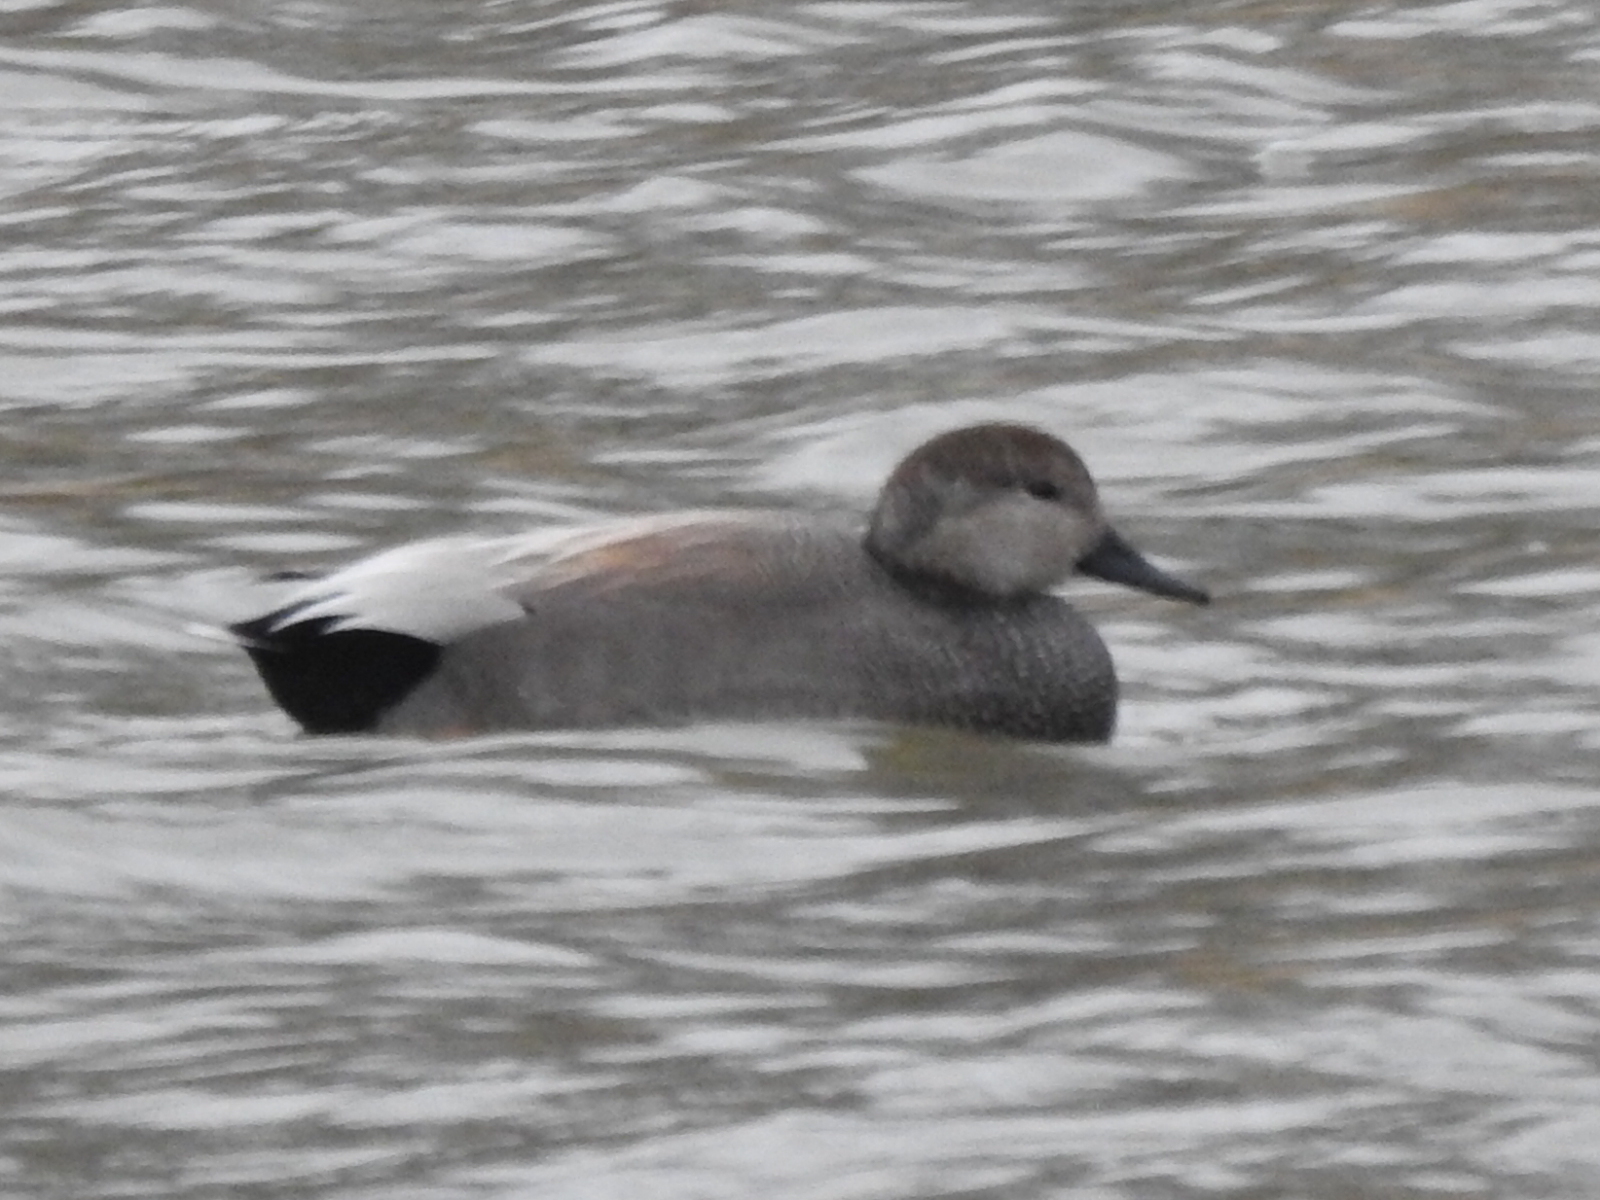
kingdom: Animalia
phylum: Chordata
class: Aves
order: Anseriformes
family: Anatidae
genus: Mareca
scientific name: Mareca strepera
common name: Gadwall
